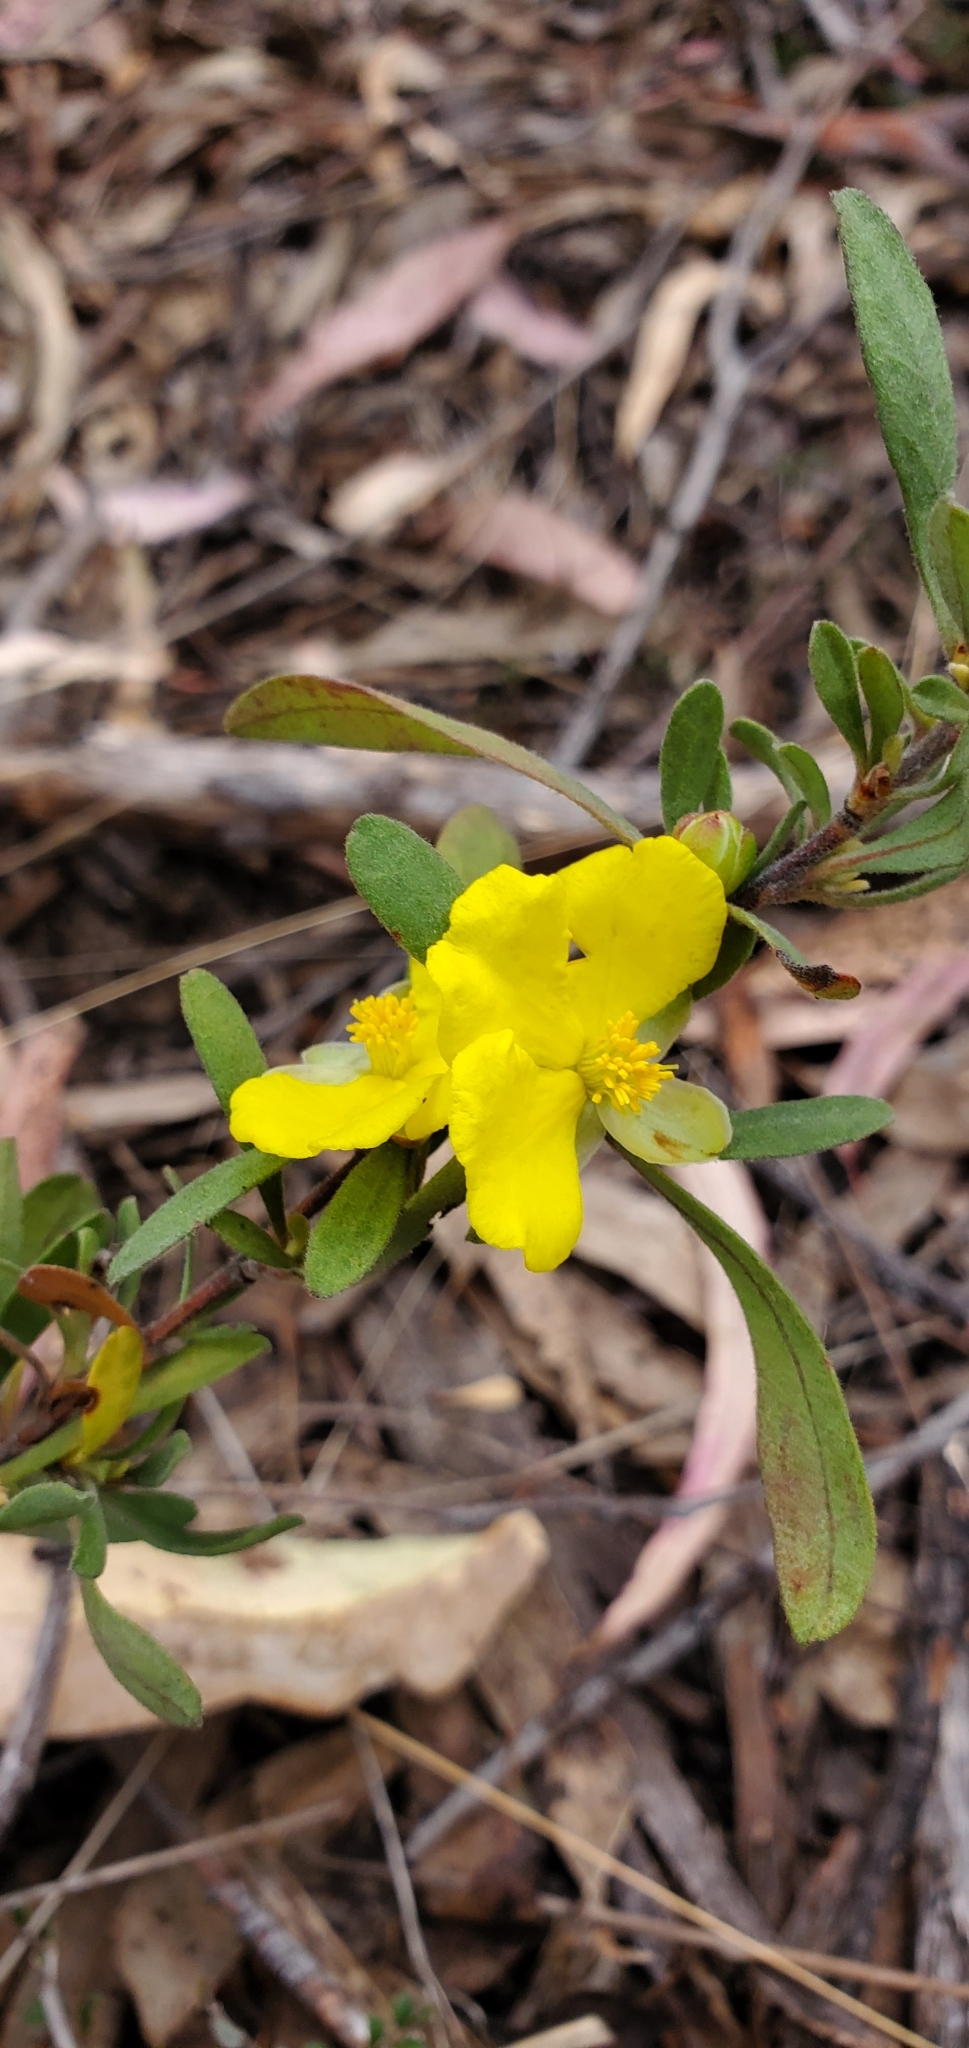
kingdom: Plantae
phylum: Tracheophyta
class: Magnoliopsida
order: Dilleniales
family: Dilleniaceae
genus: Hibbertia
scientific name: Hibbertia obtusifolia
